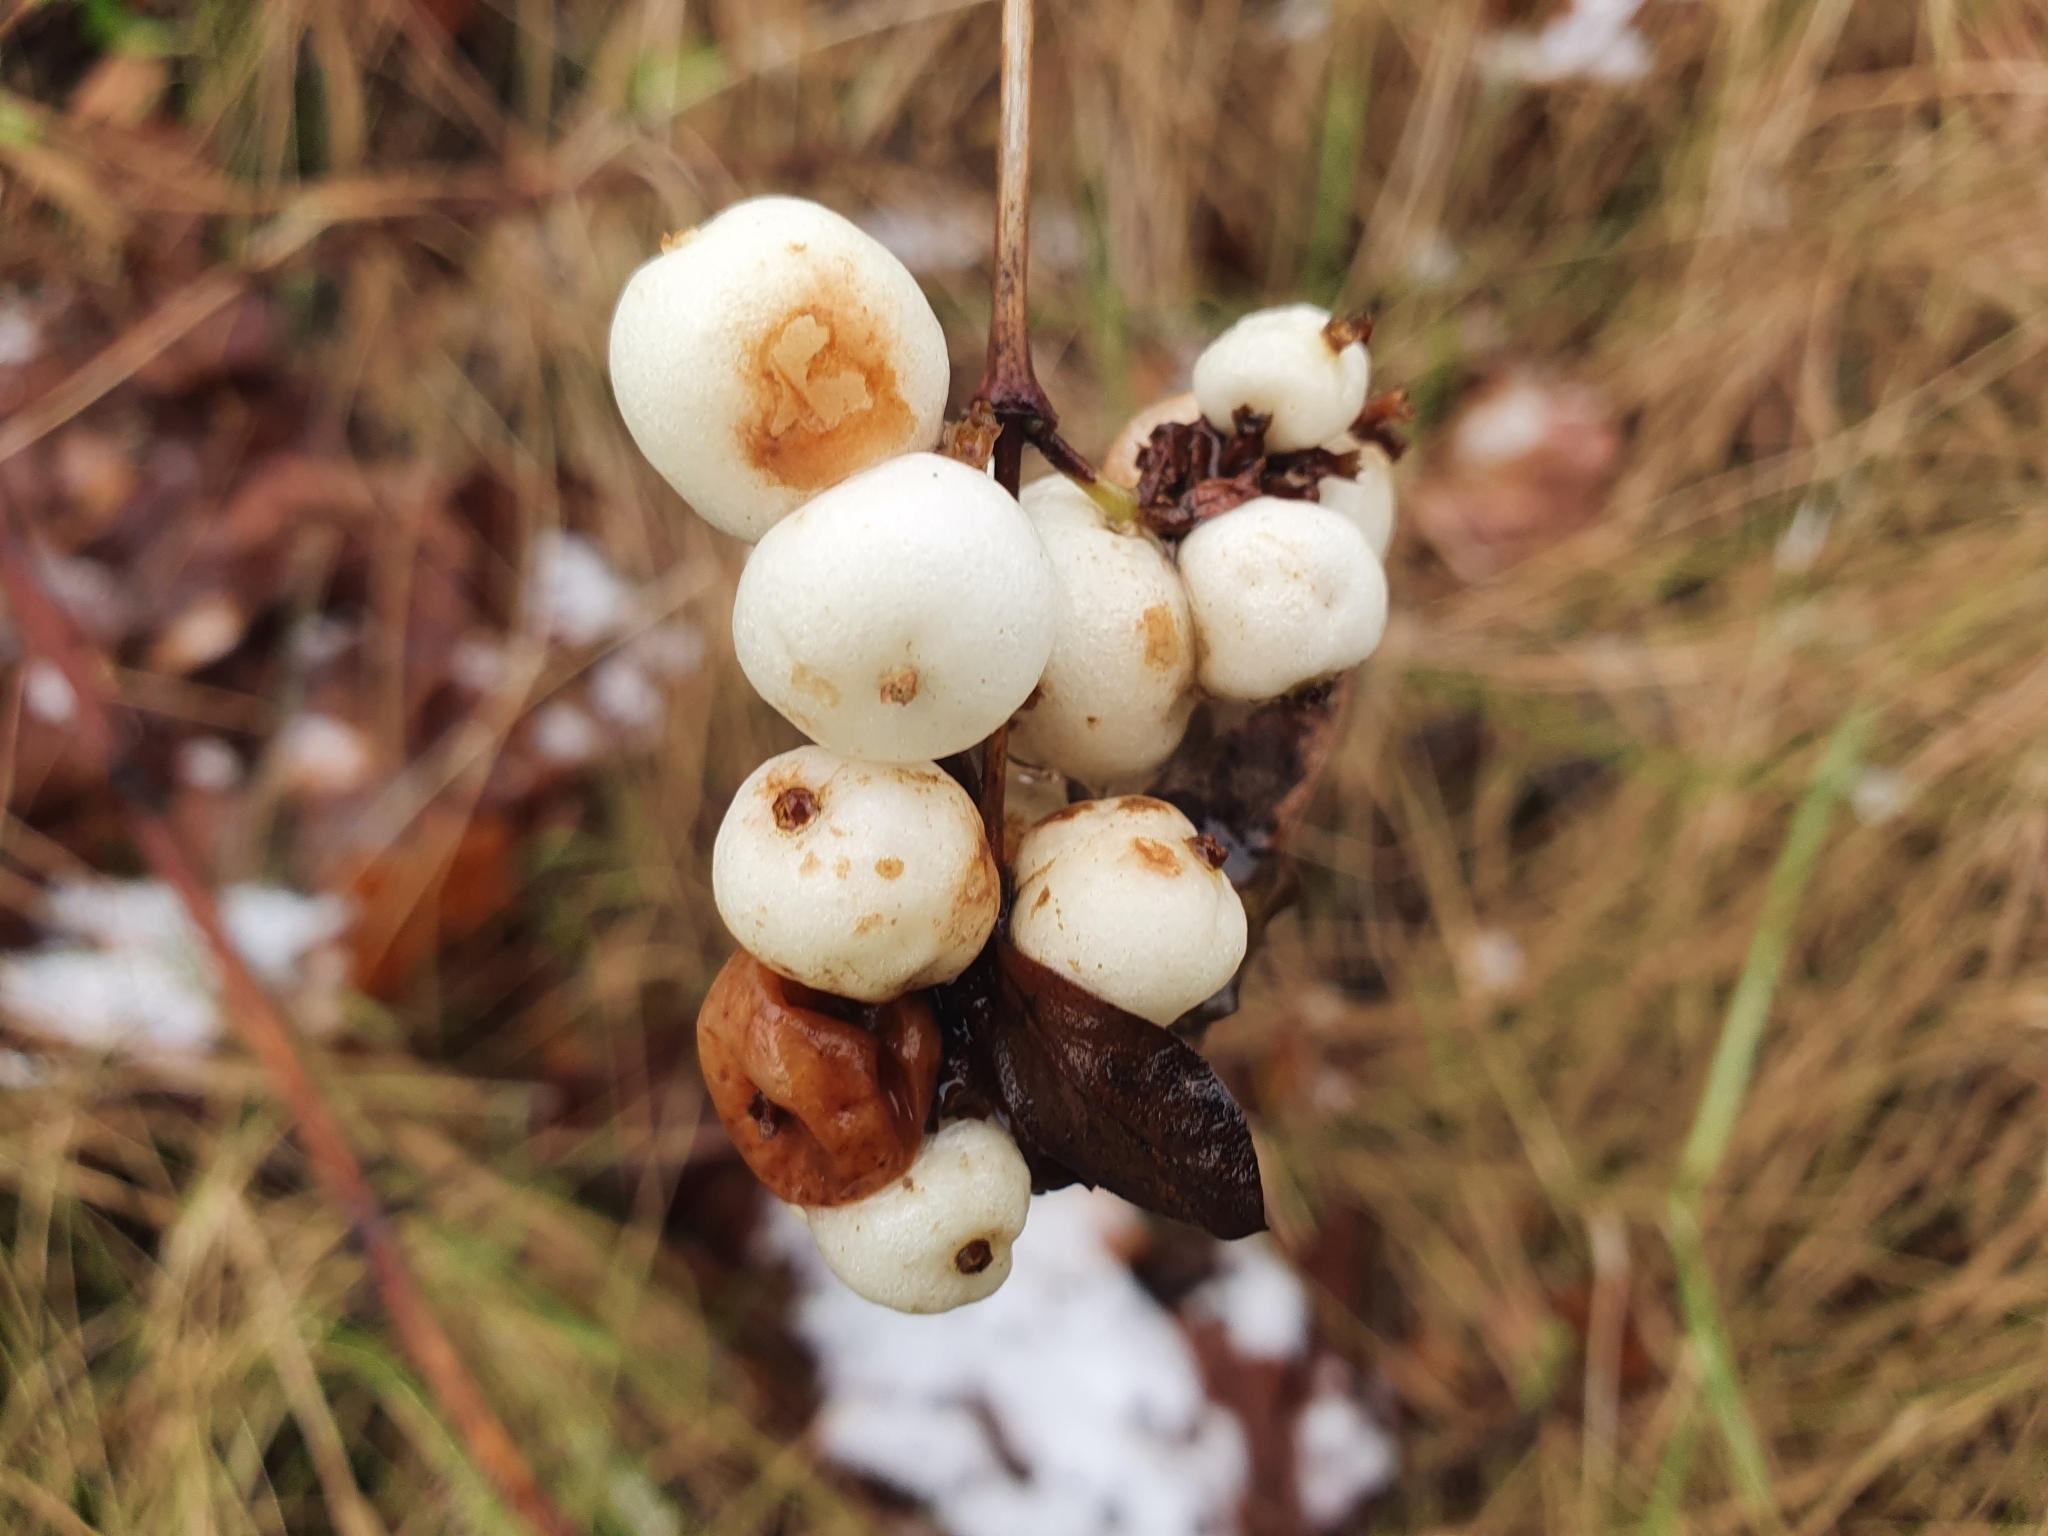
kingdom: Plantae
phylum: Tracheophyta
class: Magnoliopsida
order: Dipsacales
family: Caprifoliaceae
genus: Symphoricarpos
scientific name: Symphoricarpos albus
